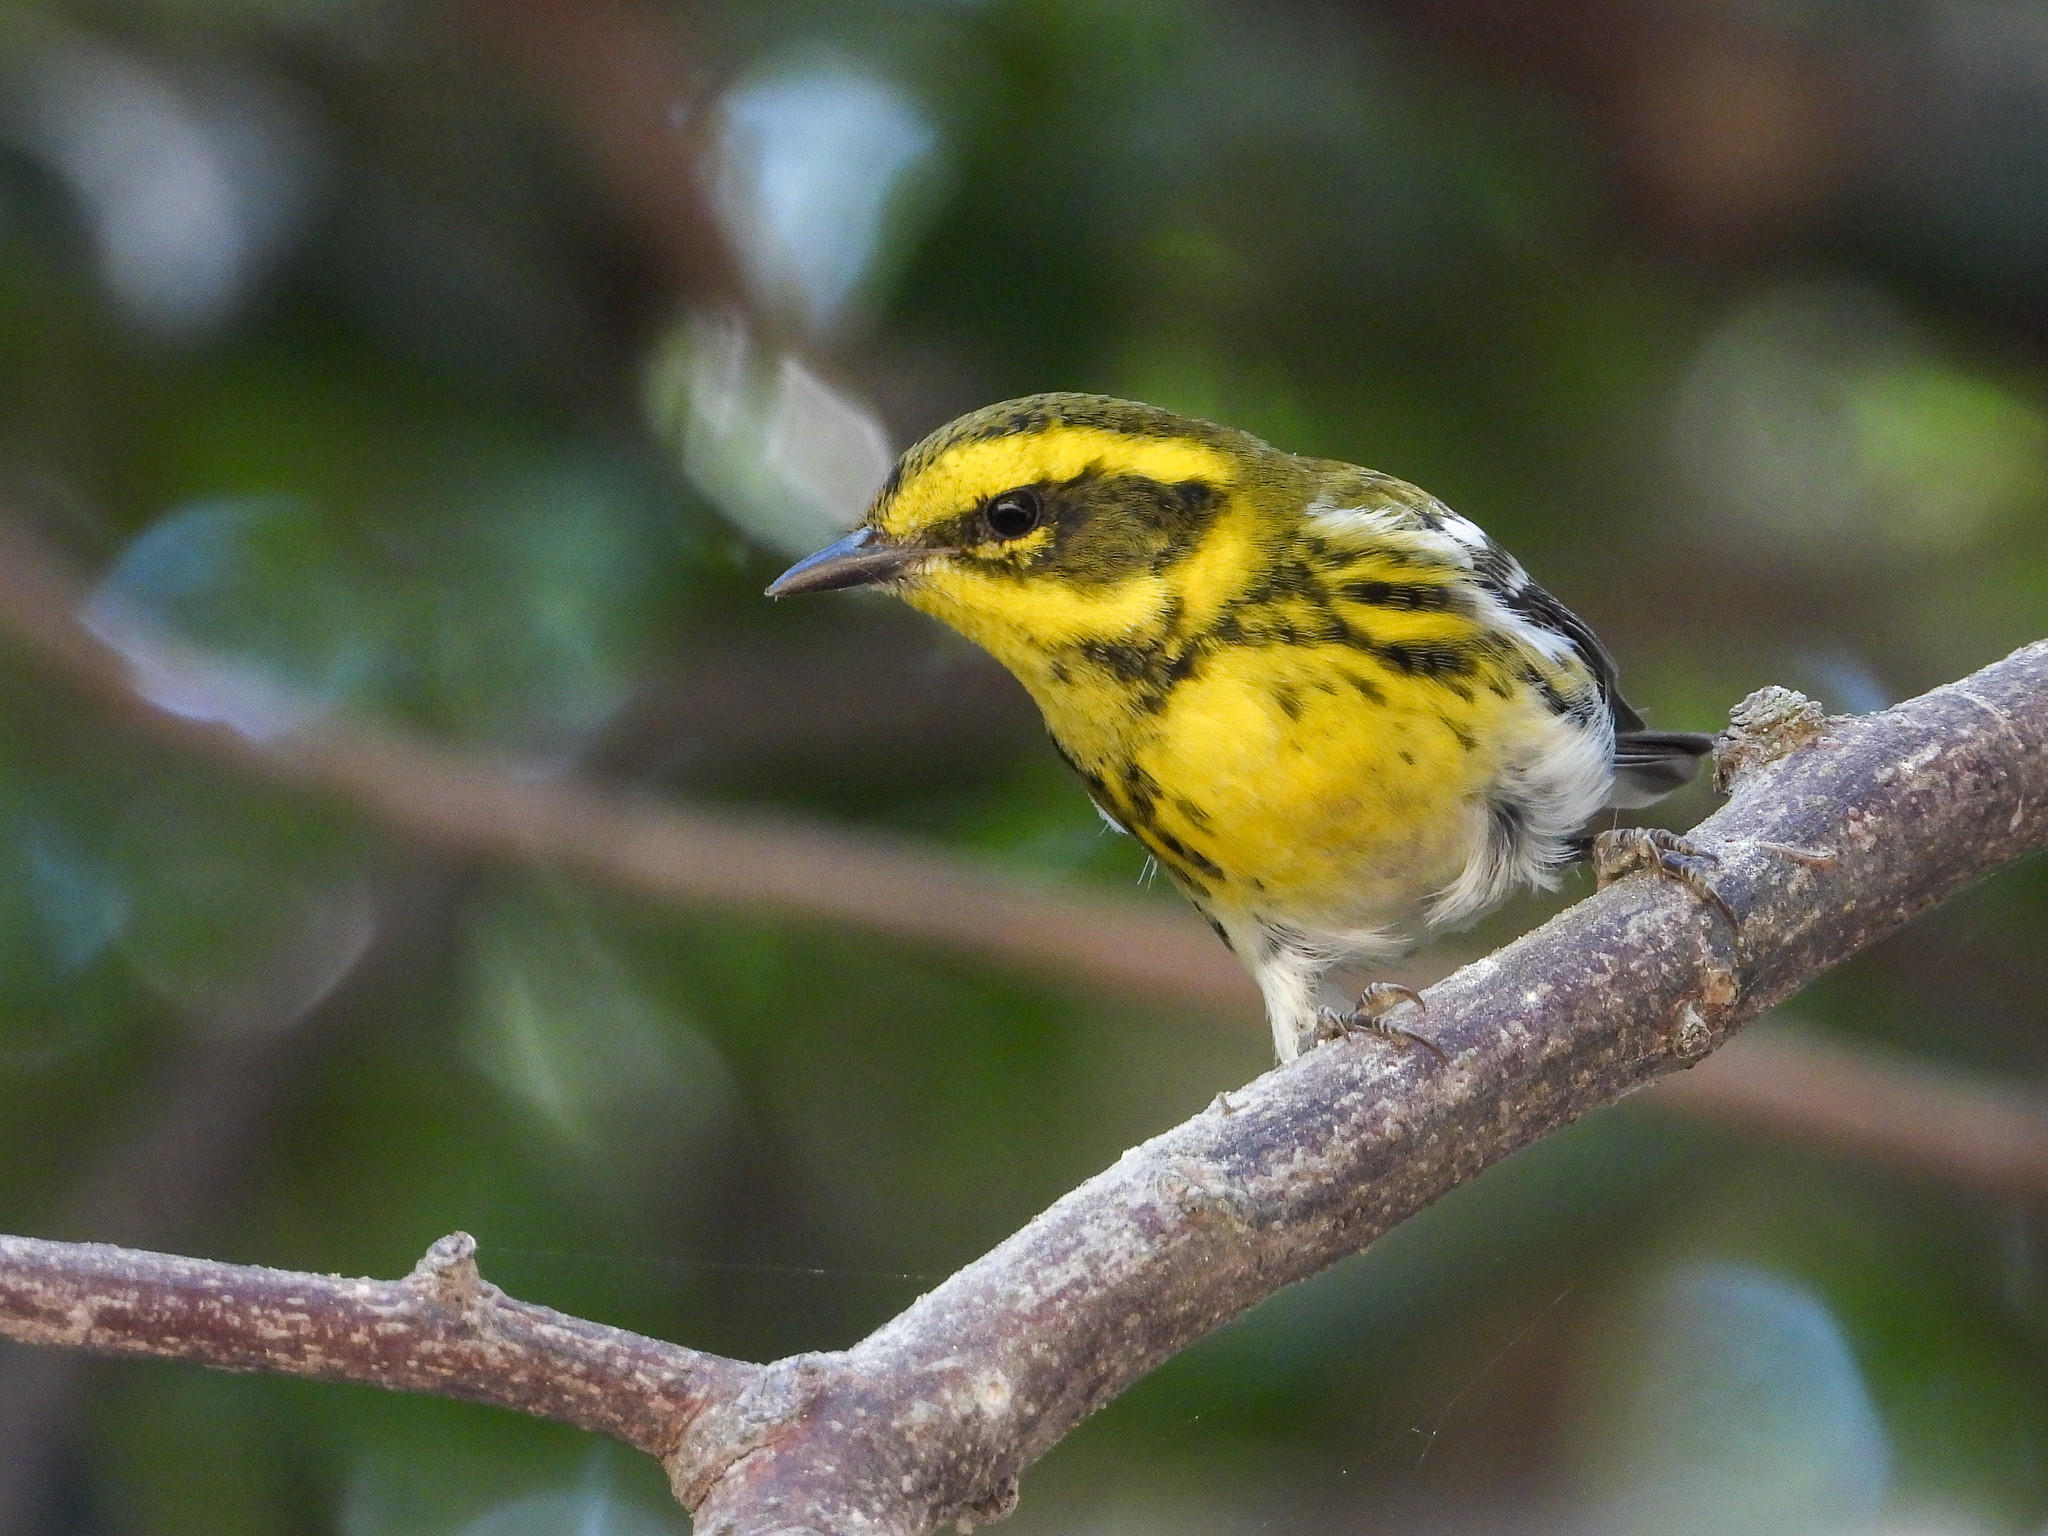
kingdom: Animalia
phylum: Chordata
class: Aves
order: Passeriformes
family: Parulidae
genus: Setophaga
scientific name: Setophaga townsendi
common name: Townsend's warbler
